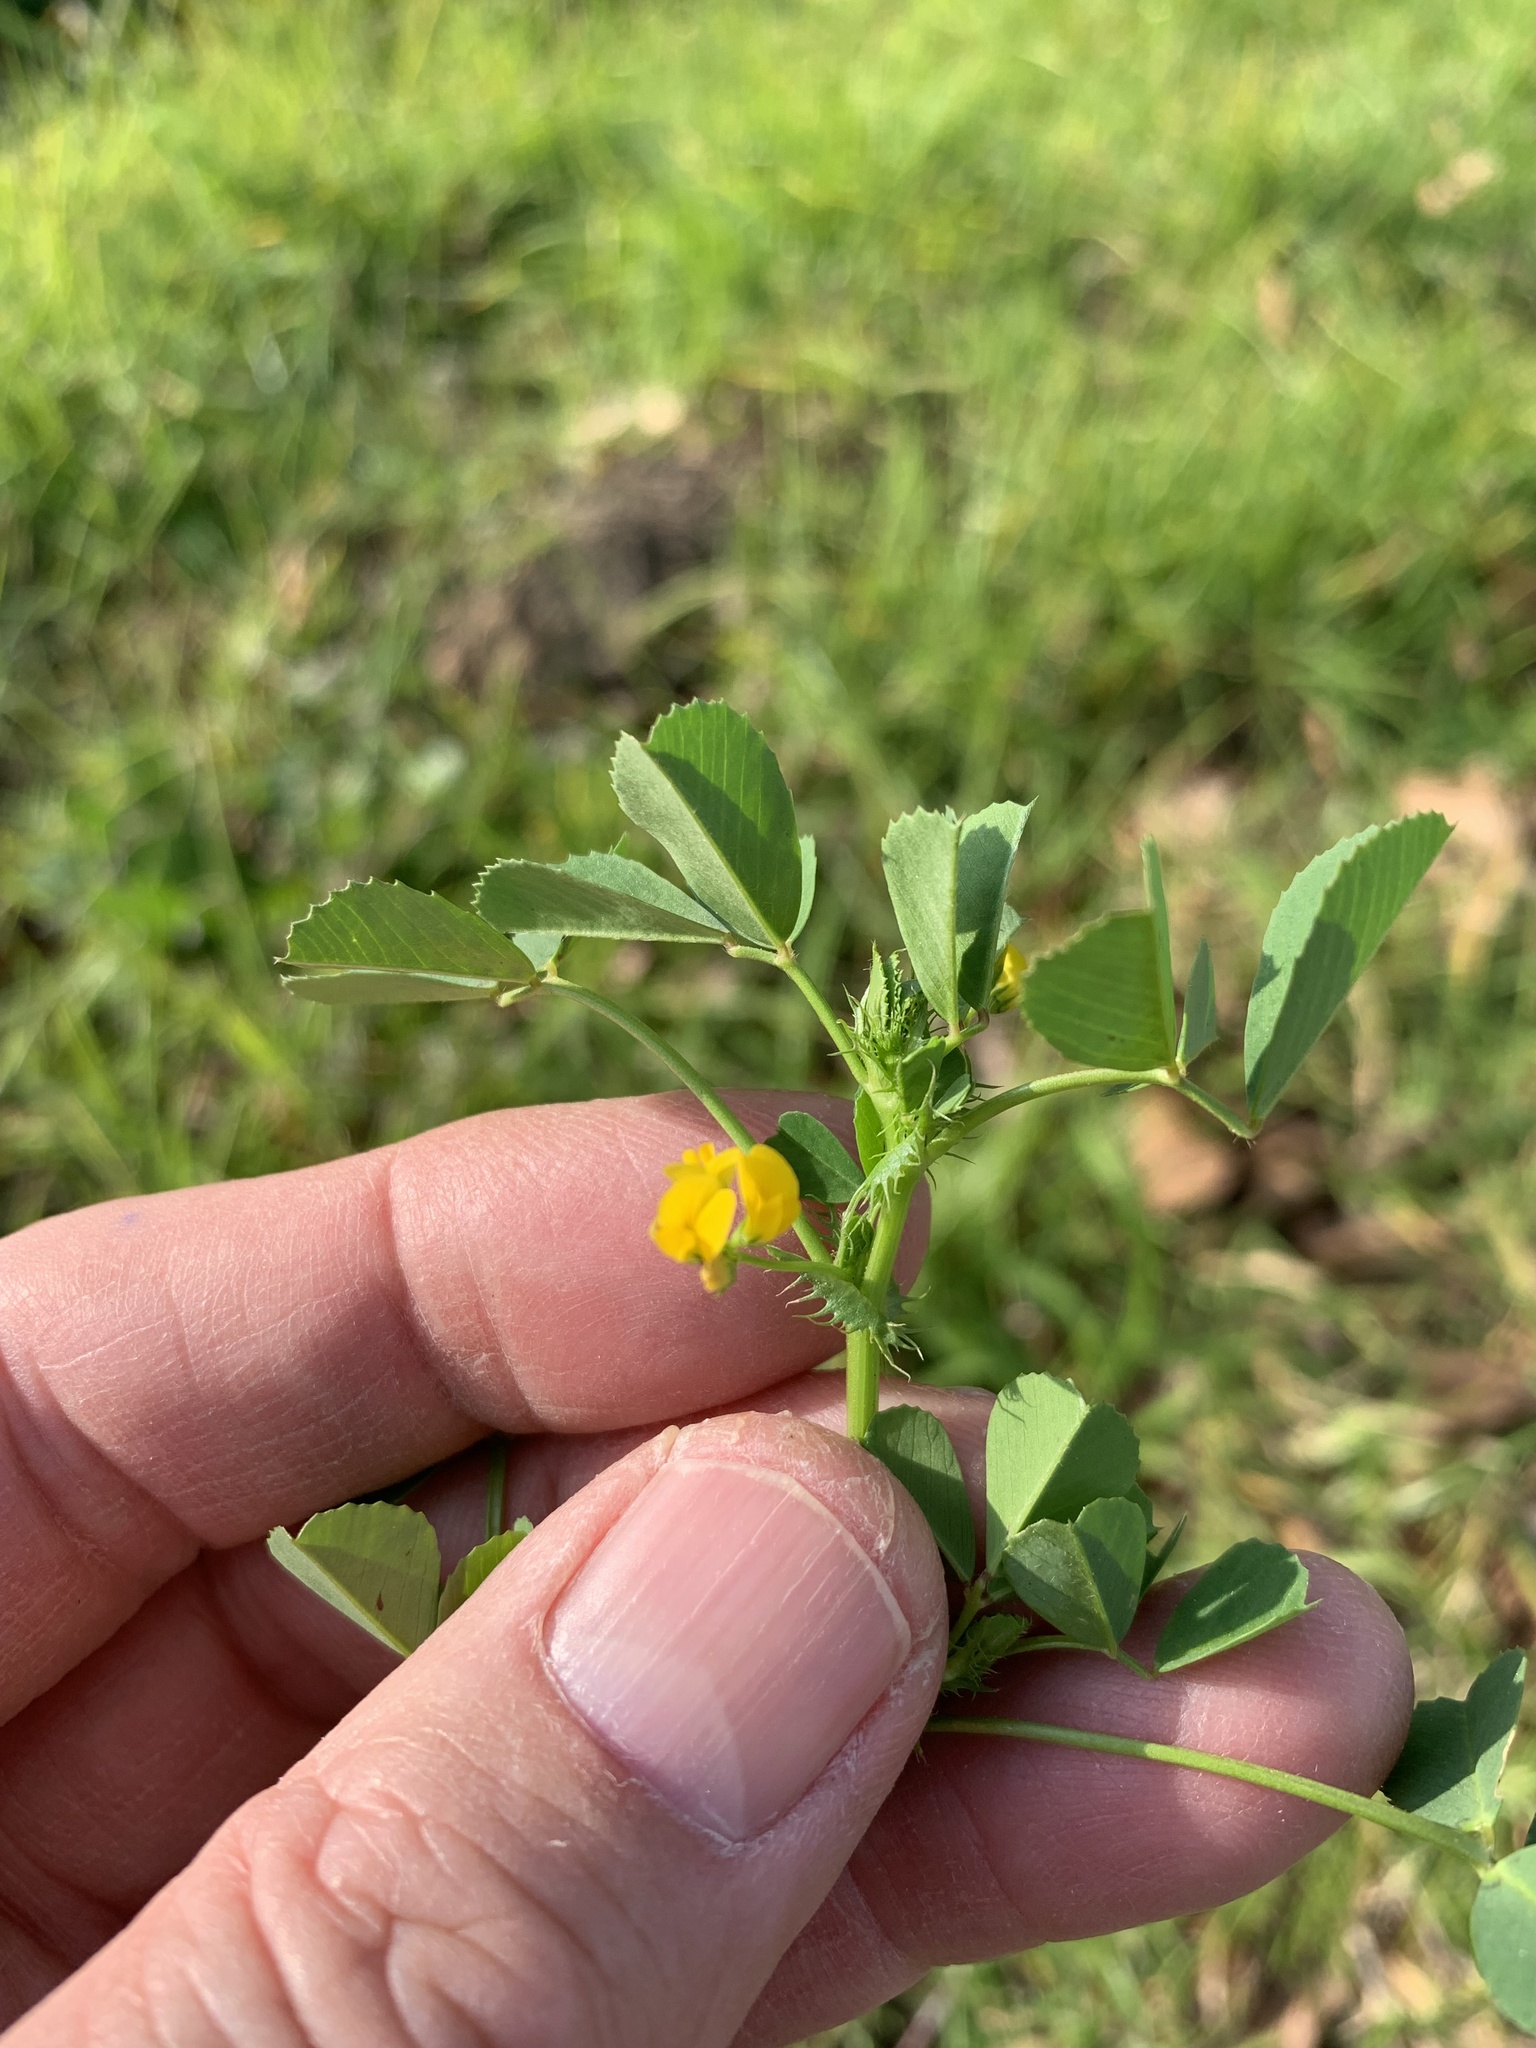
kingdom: Plantae
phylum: Tracheophyta
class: Magnoliopsida
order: Fabales
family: Fabaceae
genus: Medicago
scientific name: Medicago polymorpha
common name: Burclover
